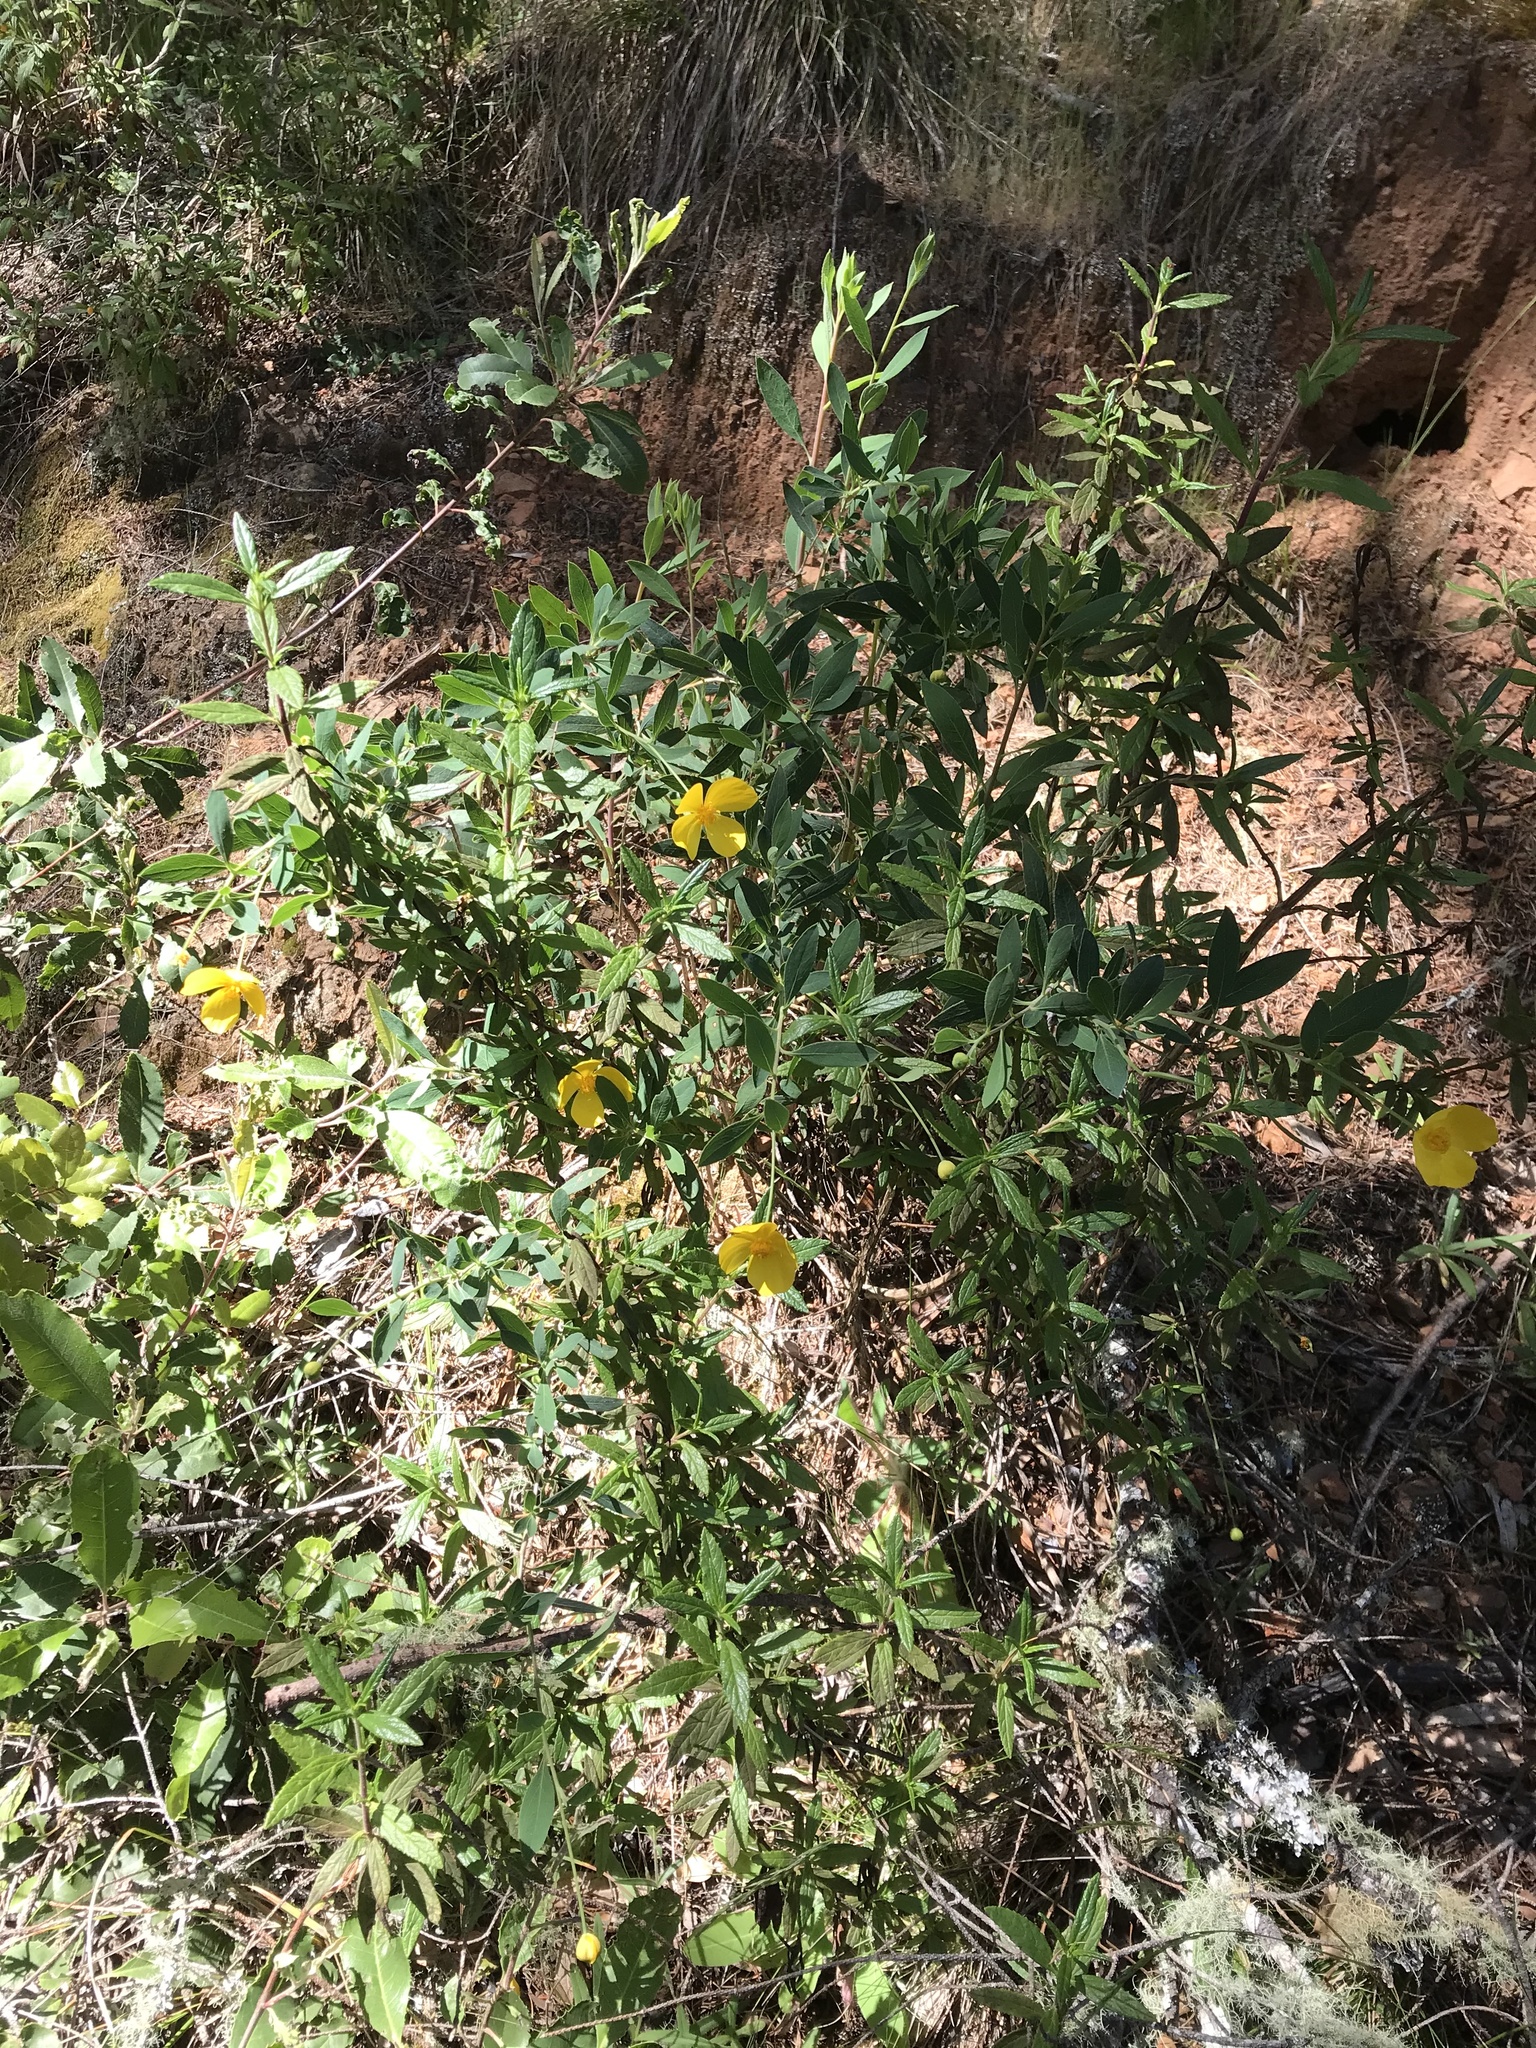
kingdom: Plantae
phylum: Tracheophyta
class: Magnoliopsida
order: Ranunculales
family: Papaveraceae
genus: Dendromecon
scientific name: Dendromecon rigida
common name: Tree poppy
